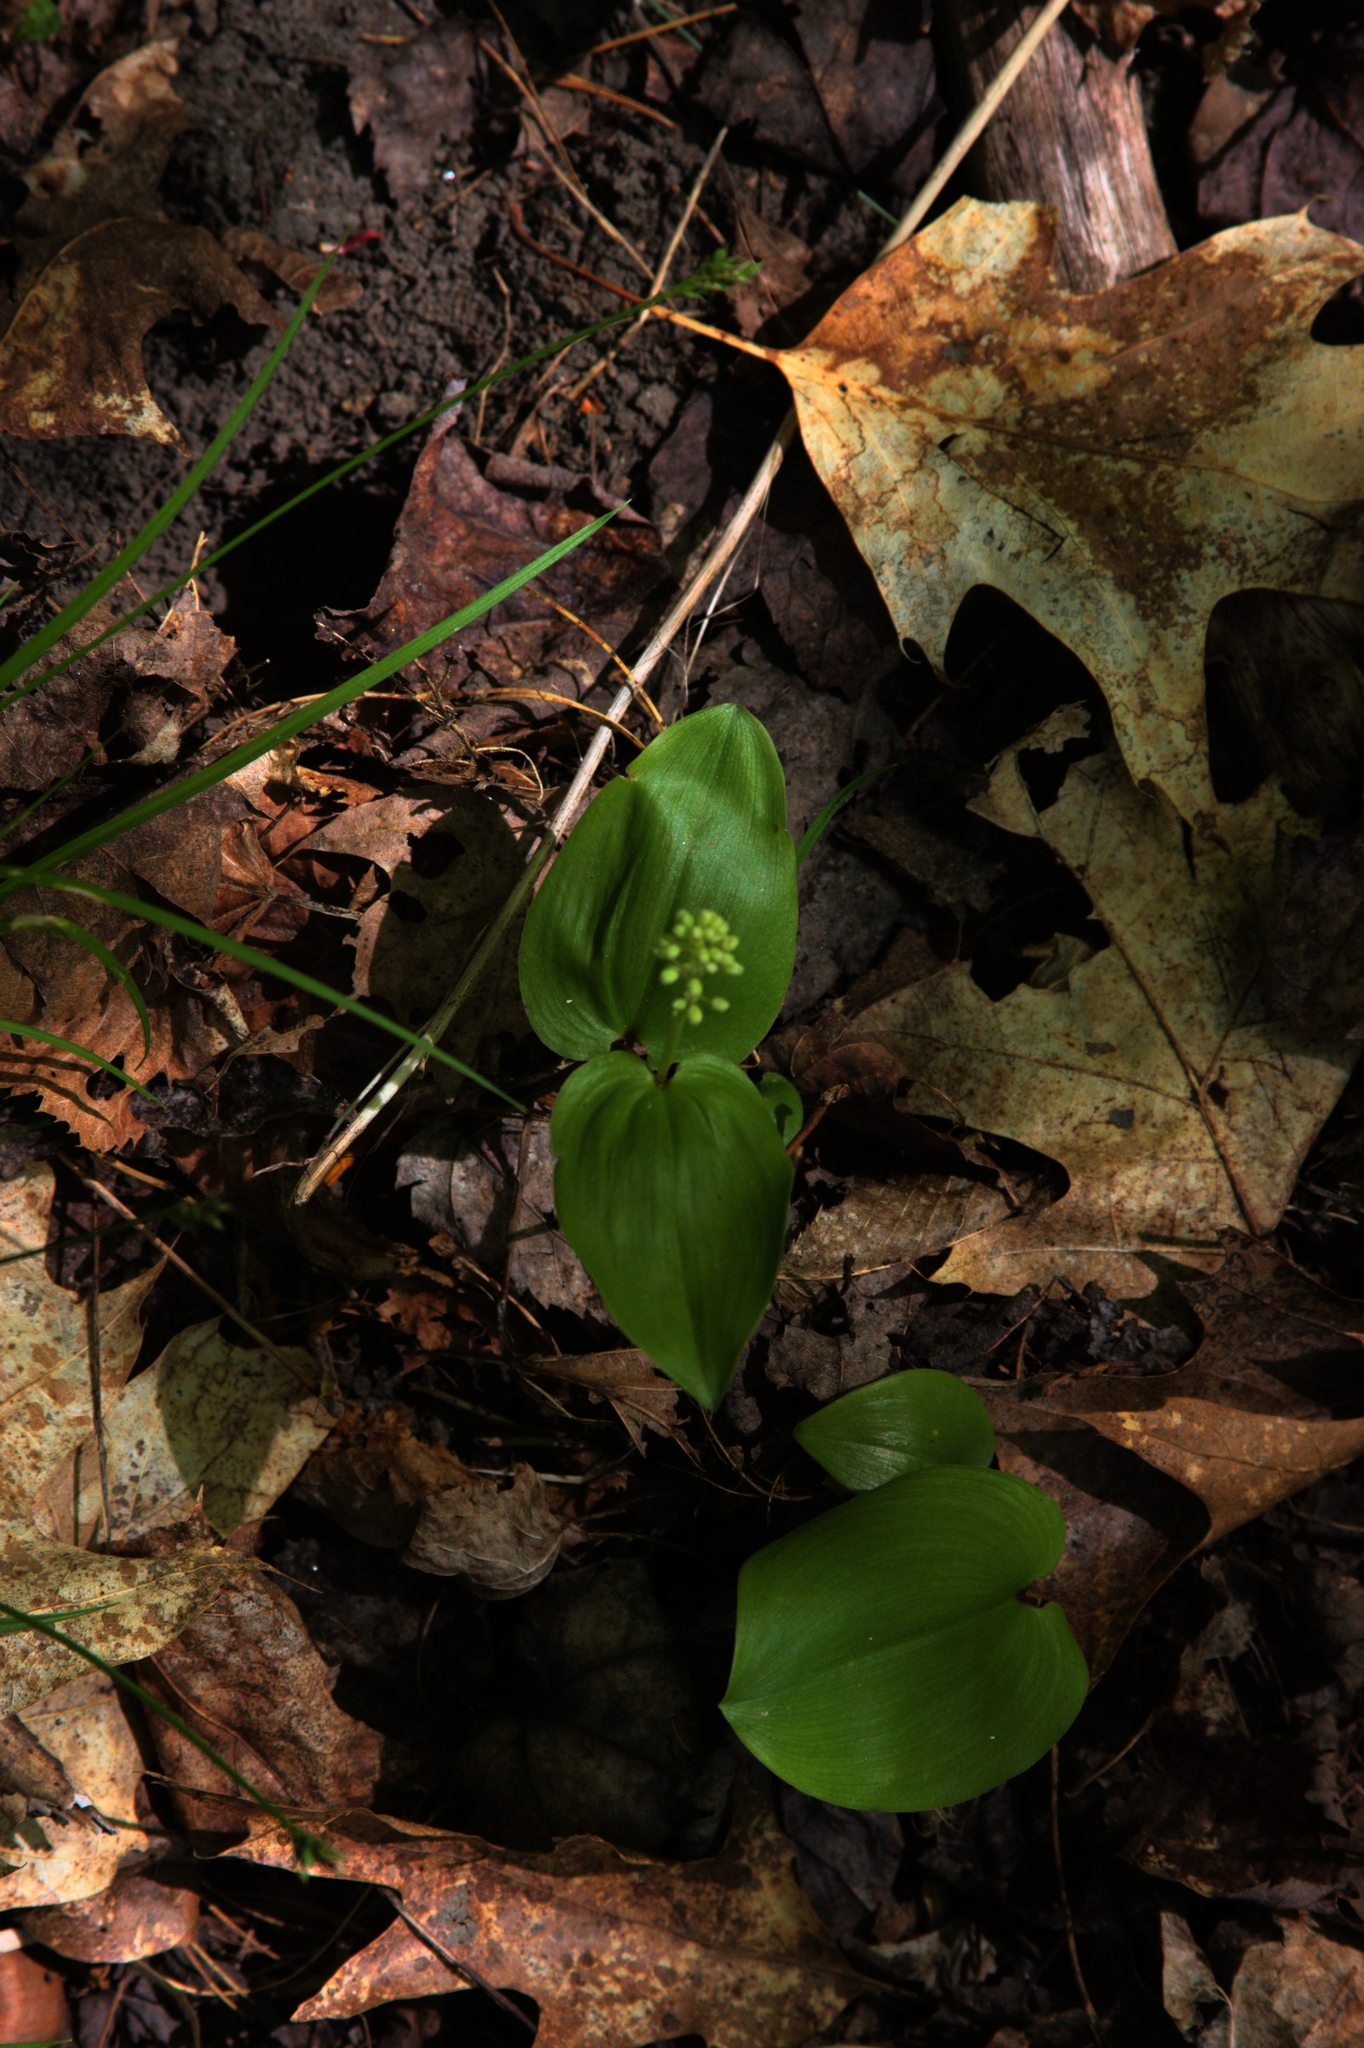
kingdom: Plantae
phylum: Tracheophyta
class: Liliopsida
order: Asparagales
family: Asparagaceae
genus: Maianthemum
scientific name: Maianthemum canadense
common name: False lily-of-the-valley
